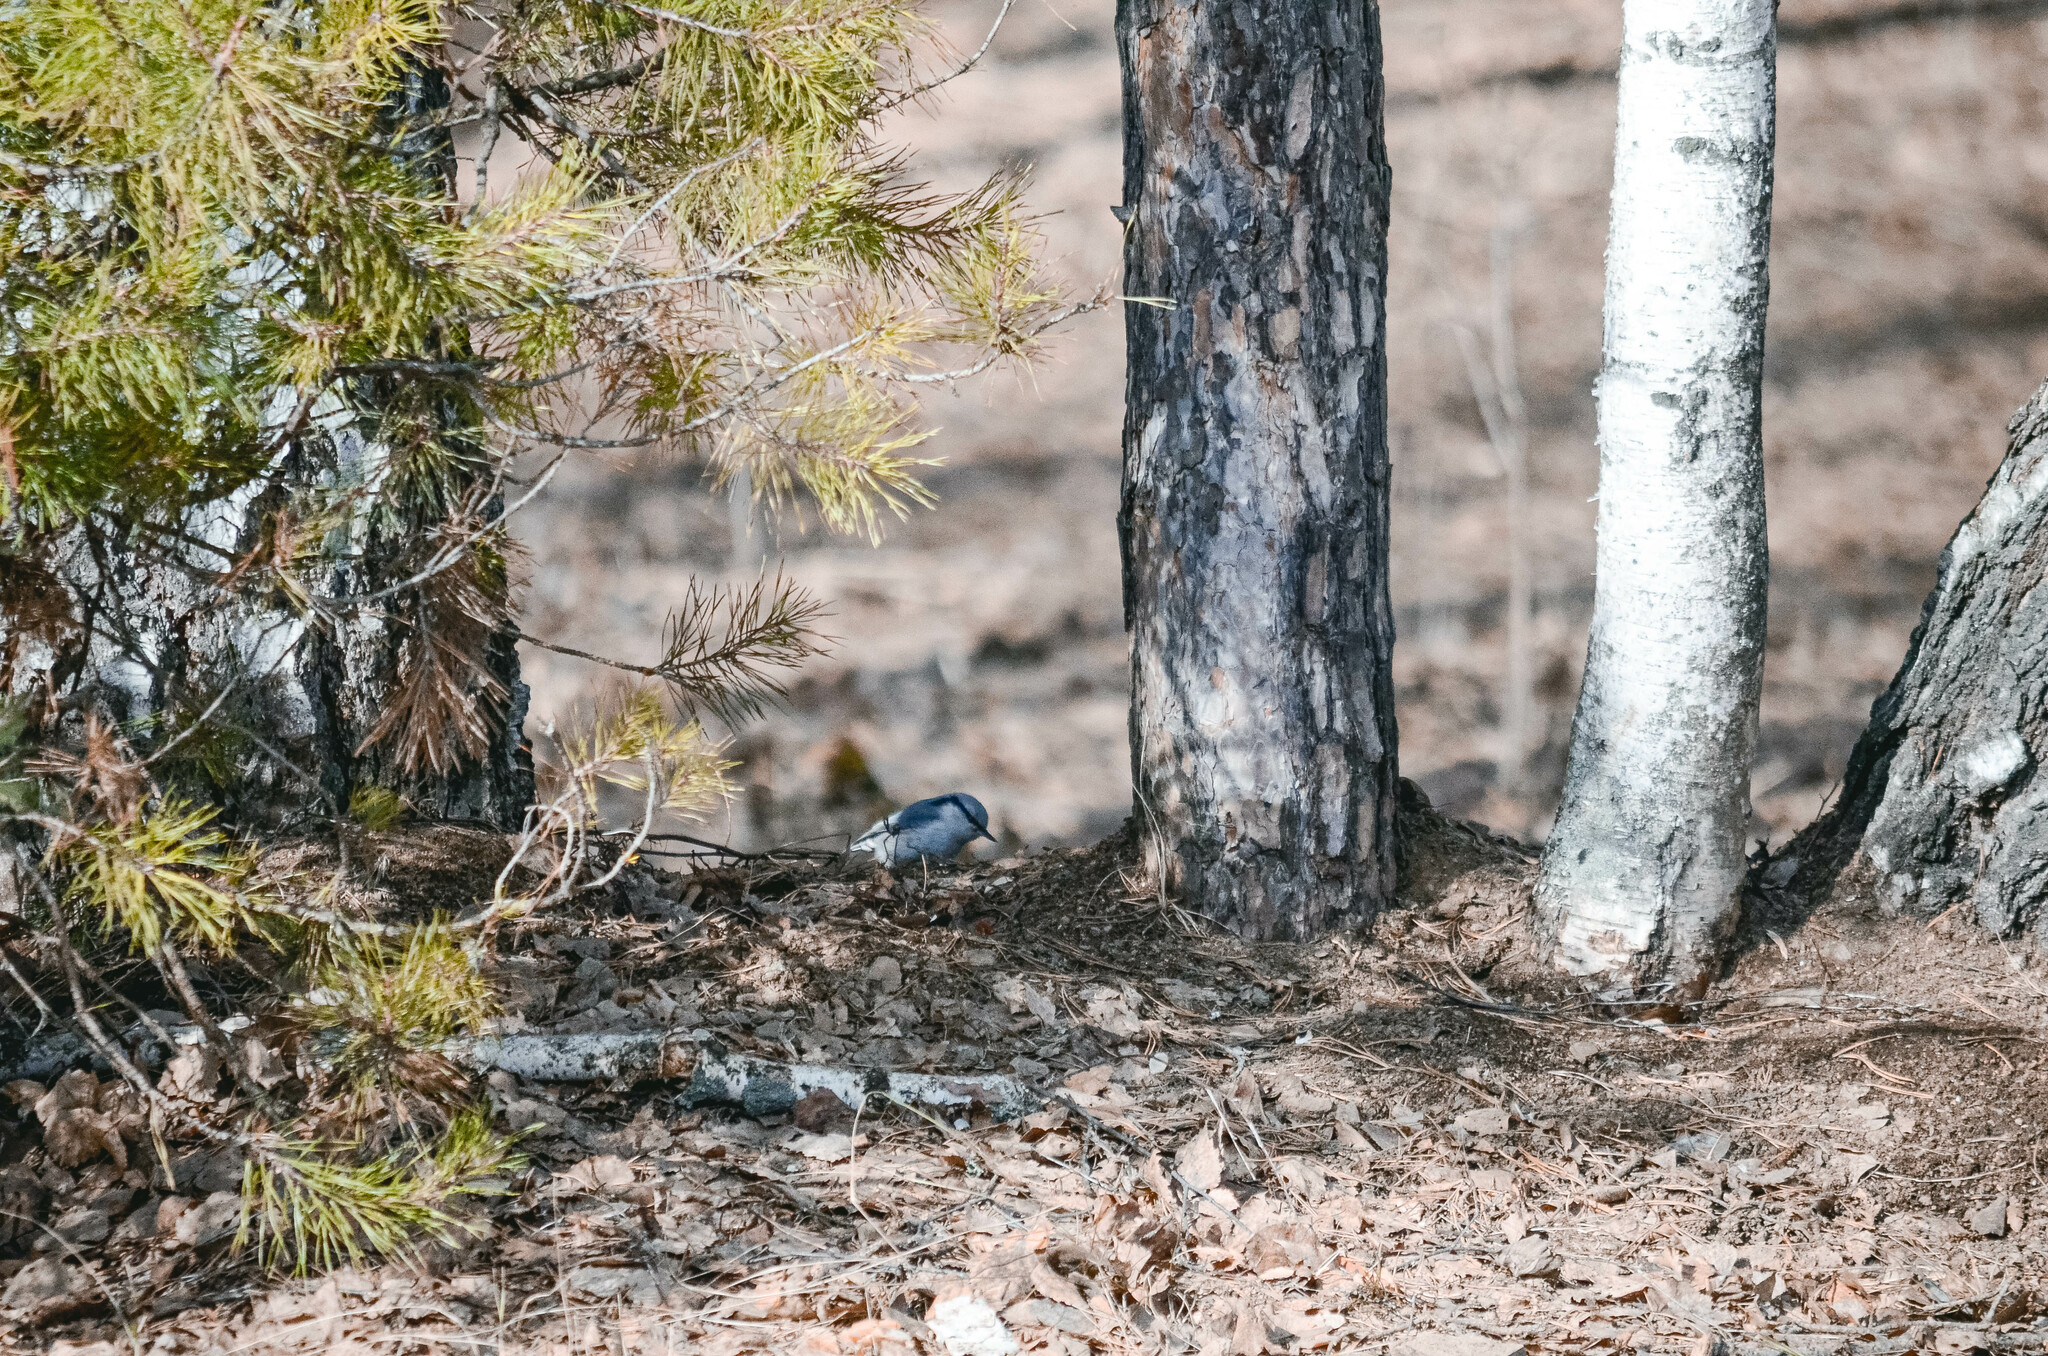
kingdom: Animalia
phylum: Chordata
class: Aves
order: Passeriformes
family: Sittidae
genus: Sitta
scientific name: Sitta europaea
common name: Eurasian nuthatch
